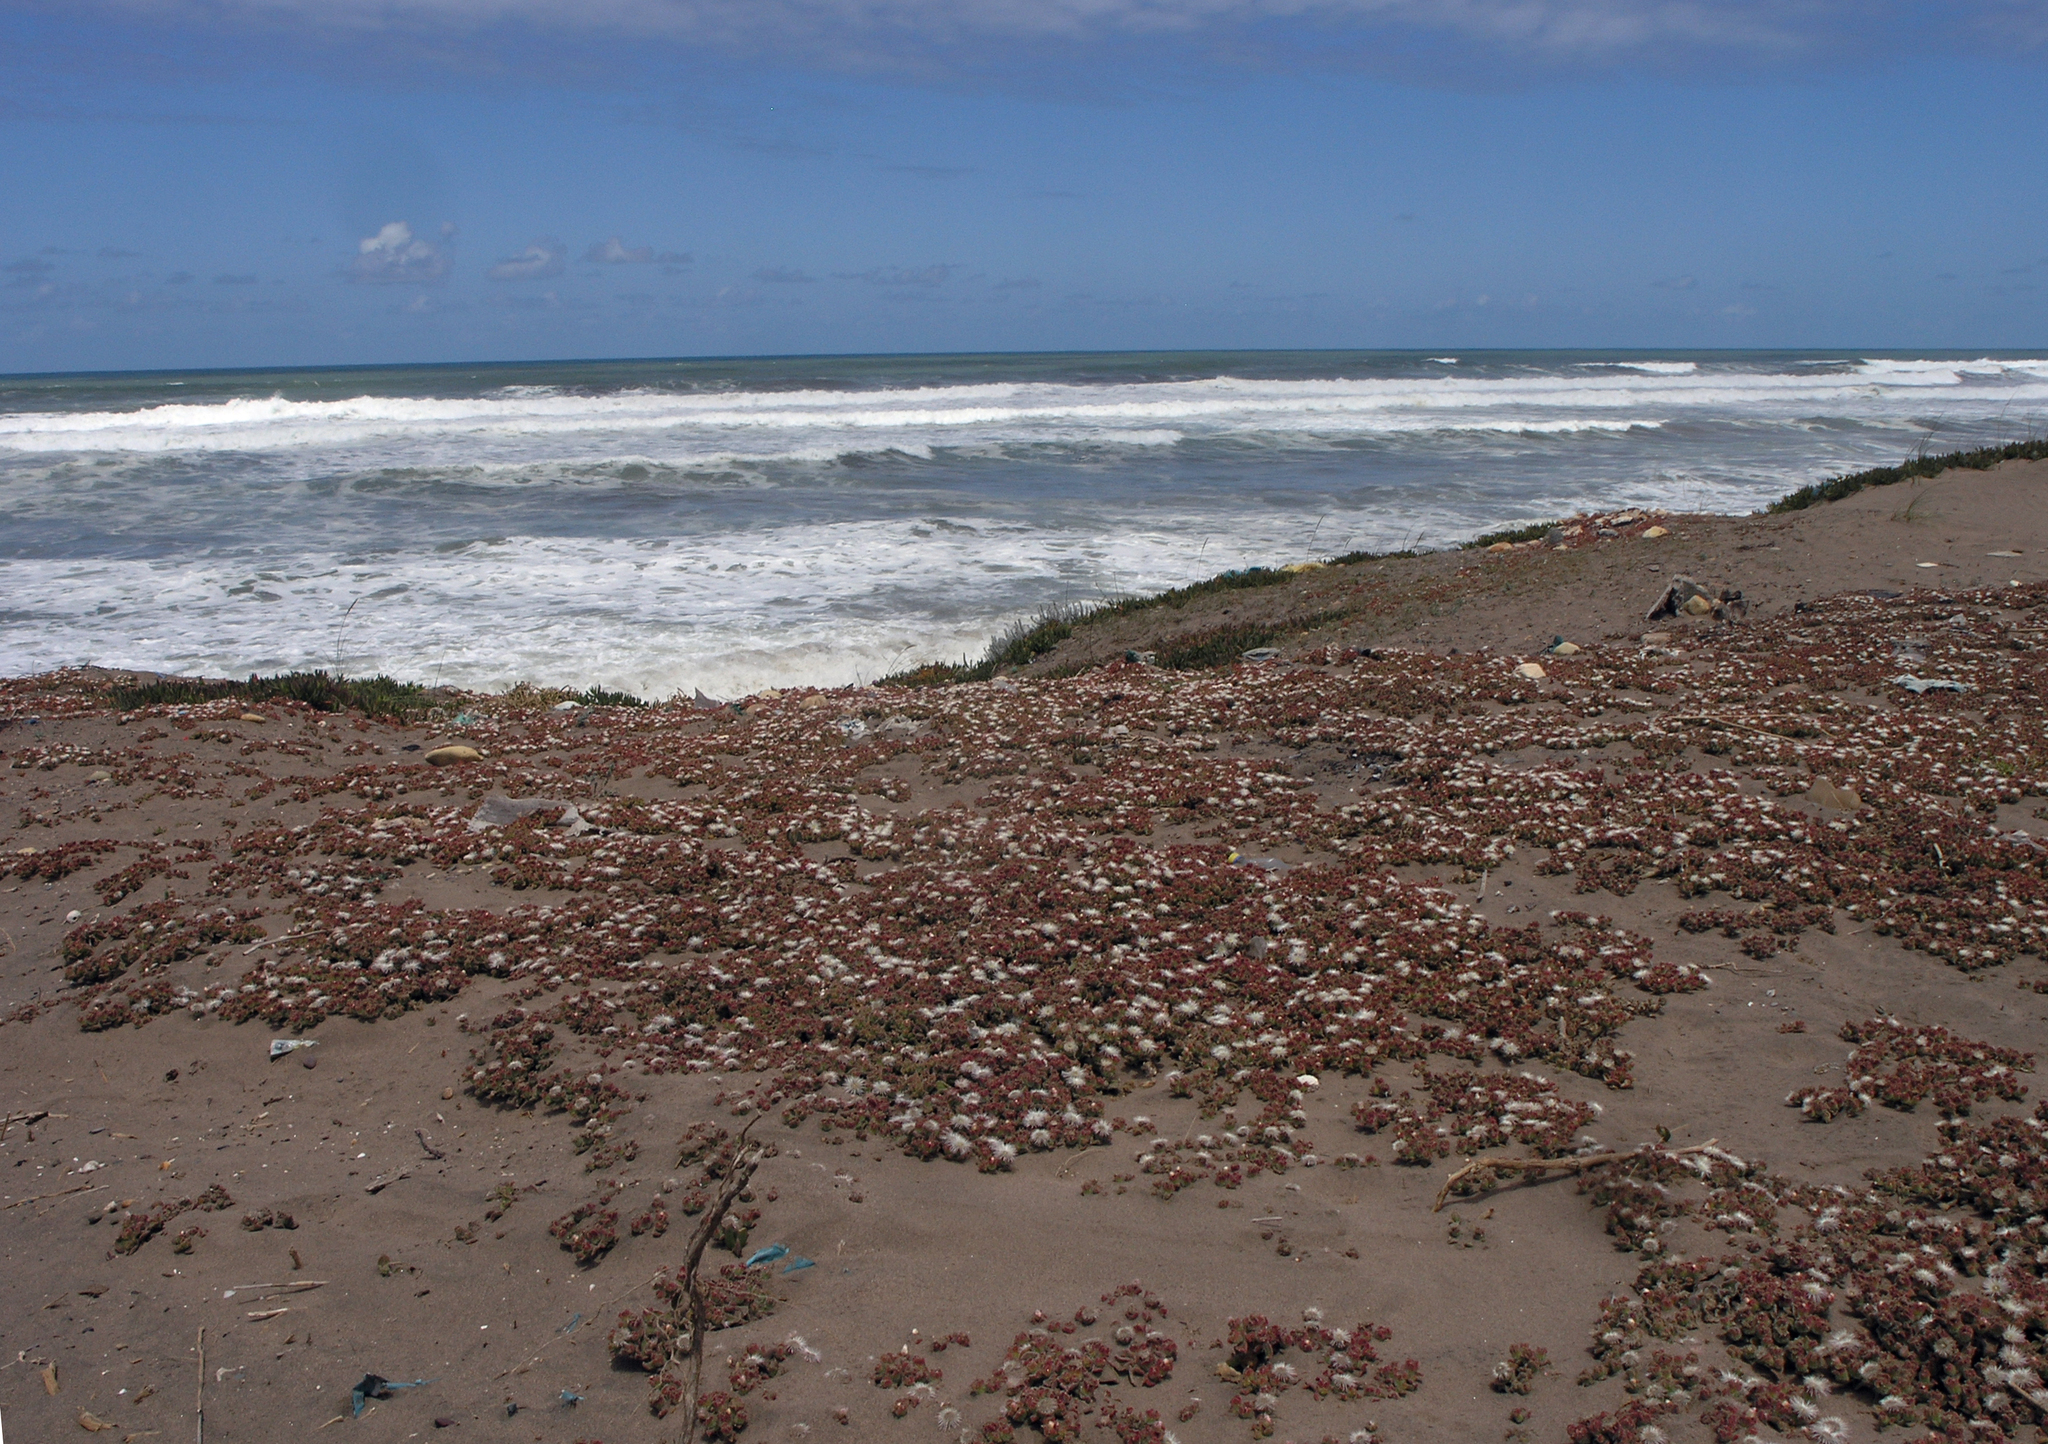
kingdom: Plantae
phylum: Tracheophyta
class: Magnoliopsida
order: Caryophyllales
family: Aizoaceae
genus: Mesembryanthemum
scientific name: Mesembryanthemum crystallinum
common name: Common iceplant
